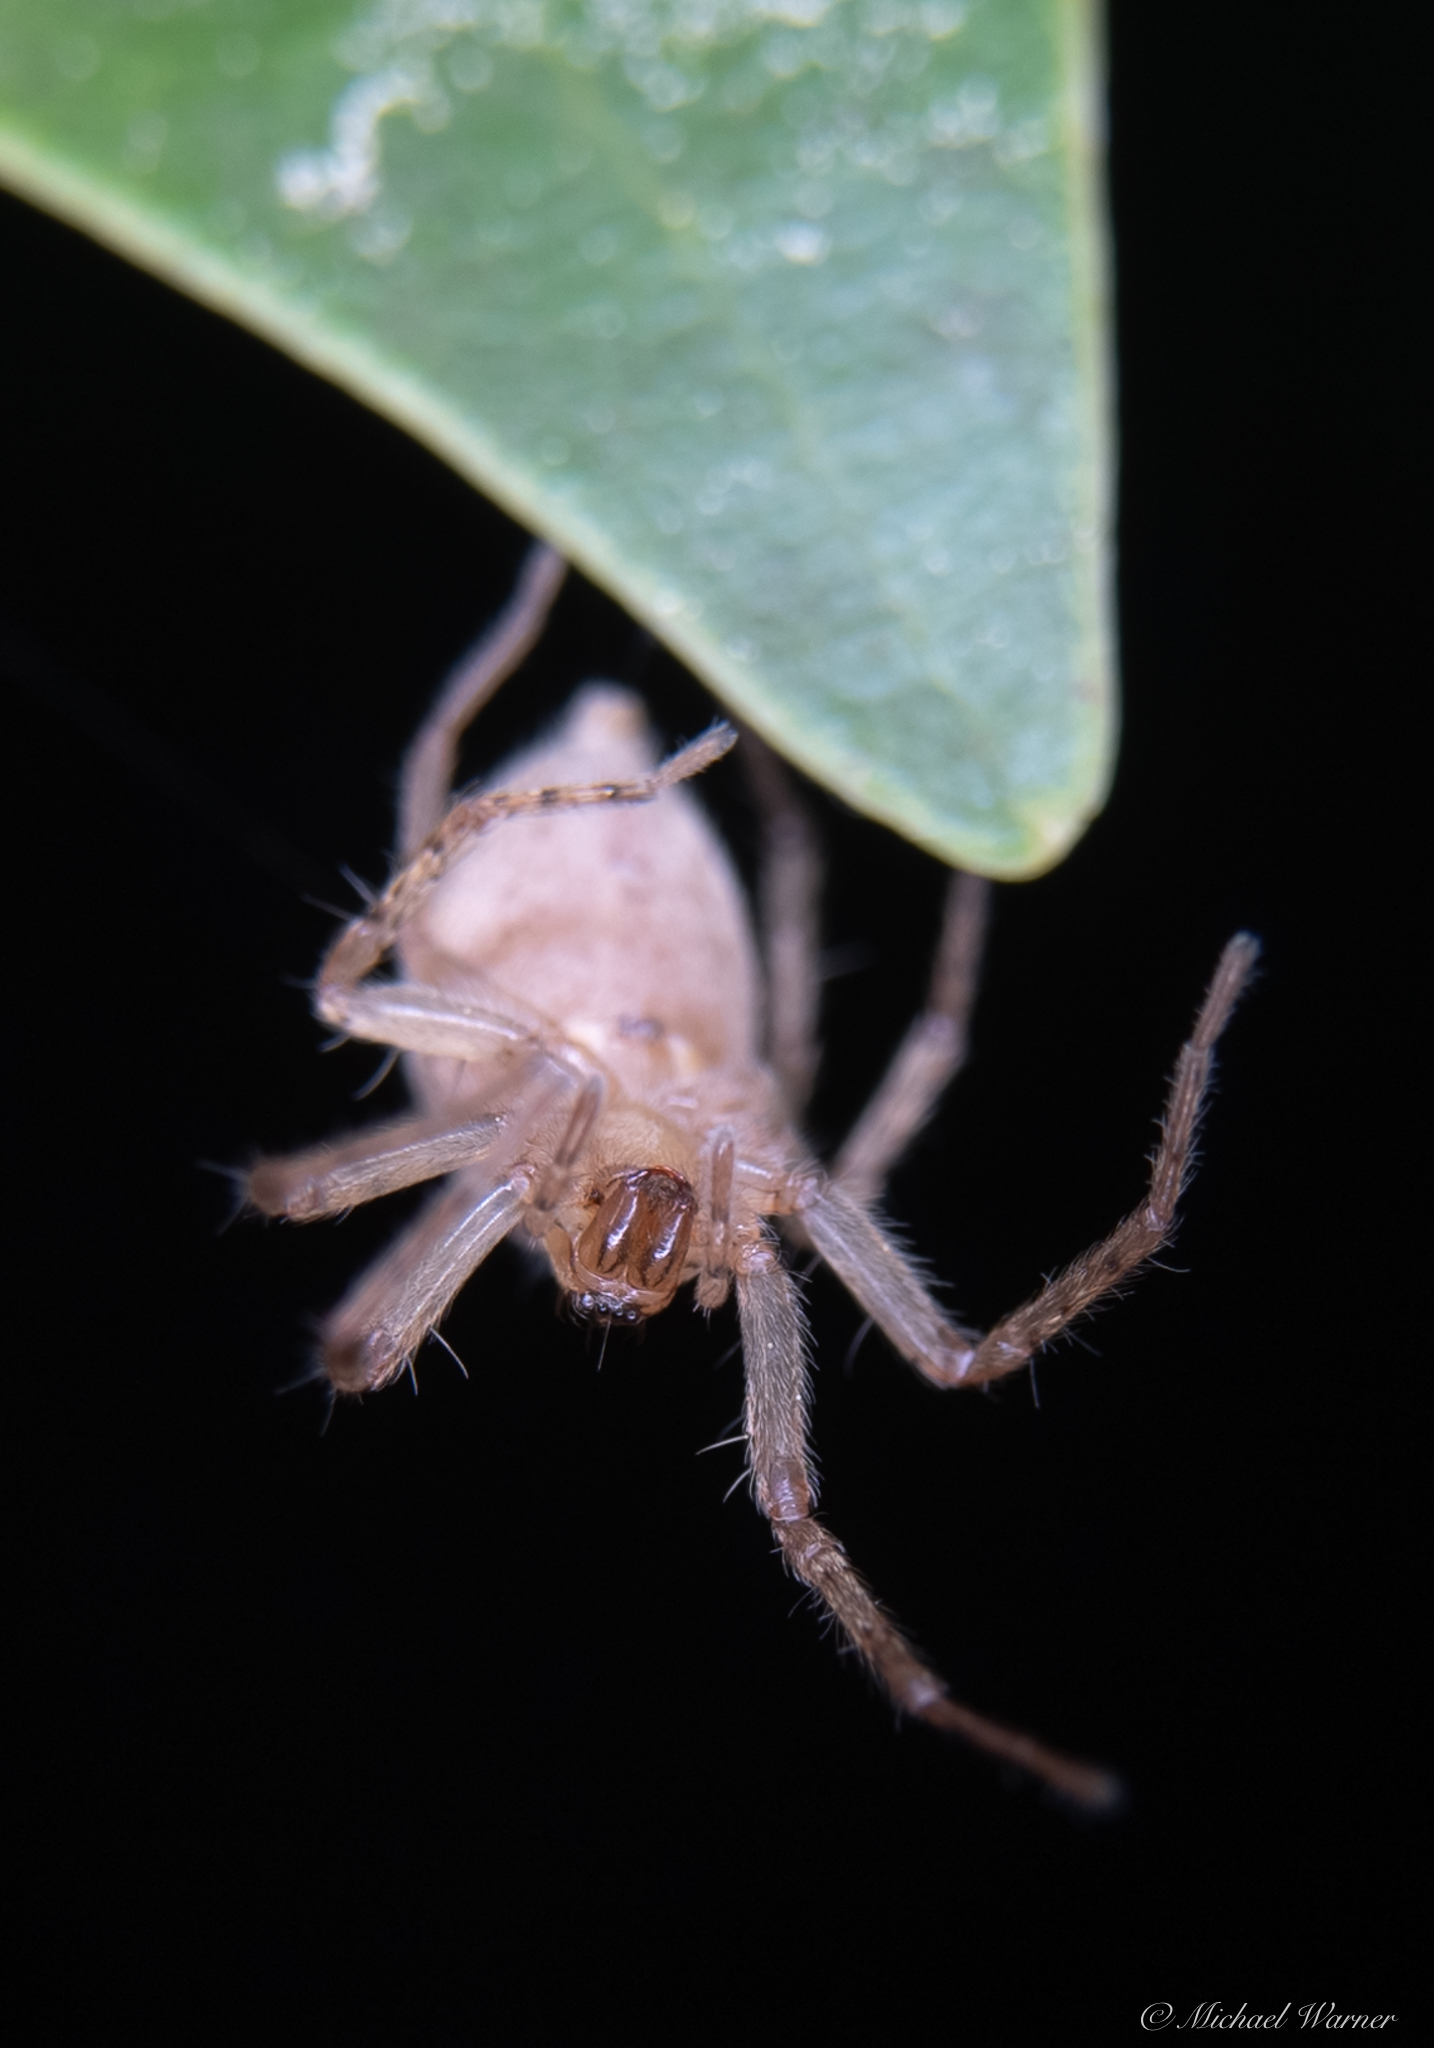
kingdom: Animalia
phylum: Arthropoda
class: Arachnida
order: Araneae
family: Anyphaenidae
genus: Anyphaena
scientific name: Anyphaena
